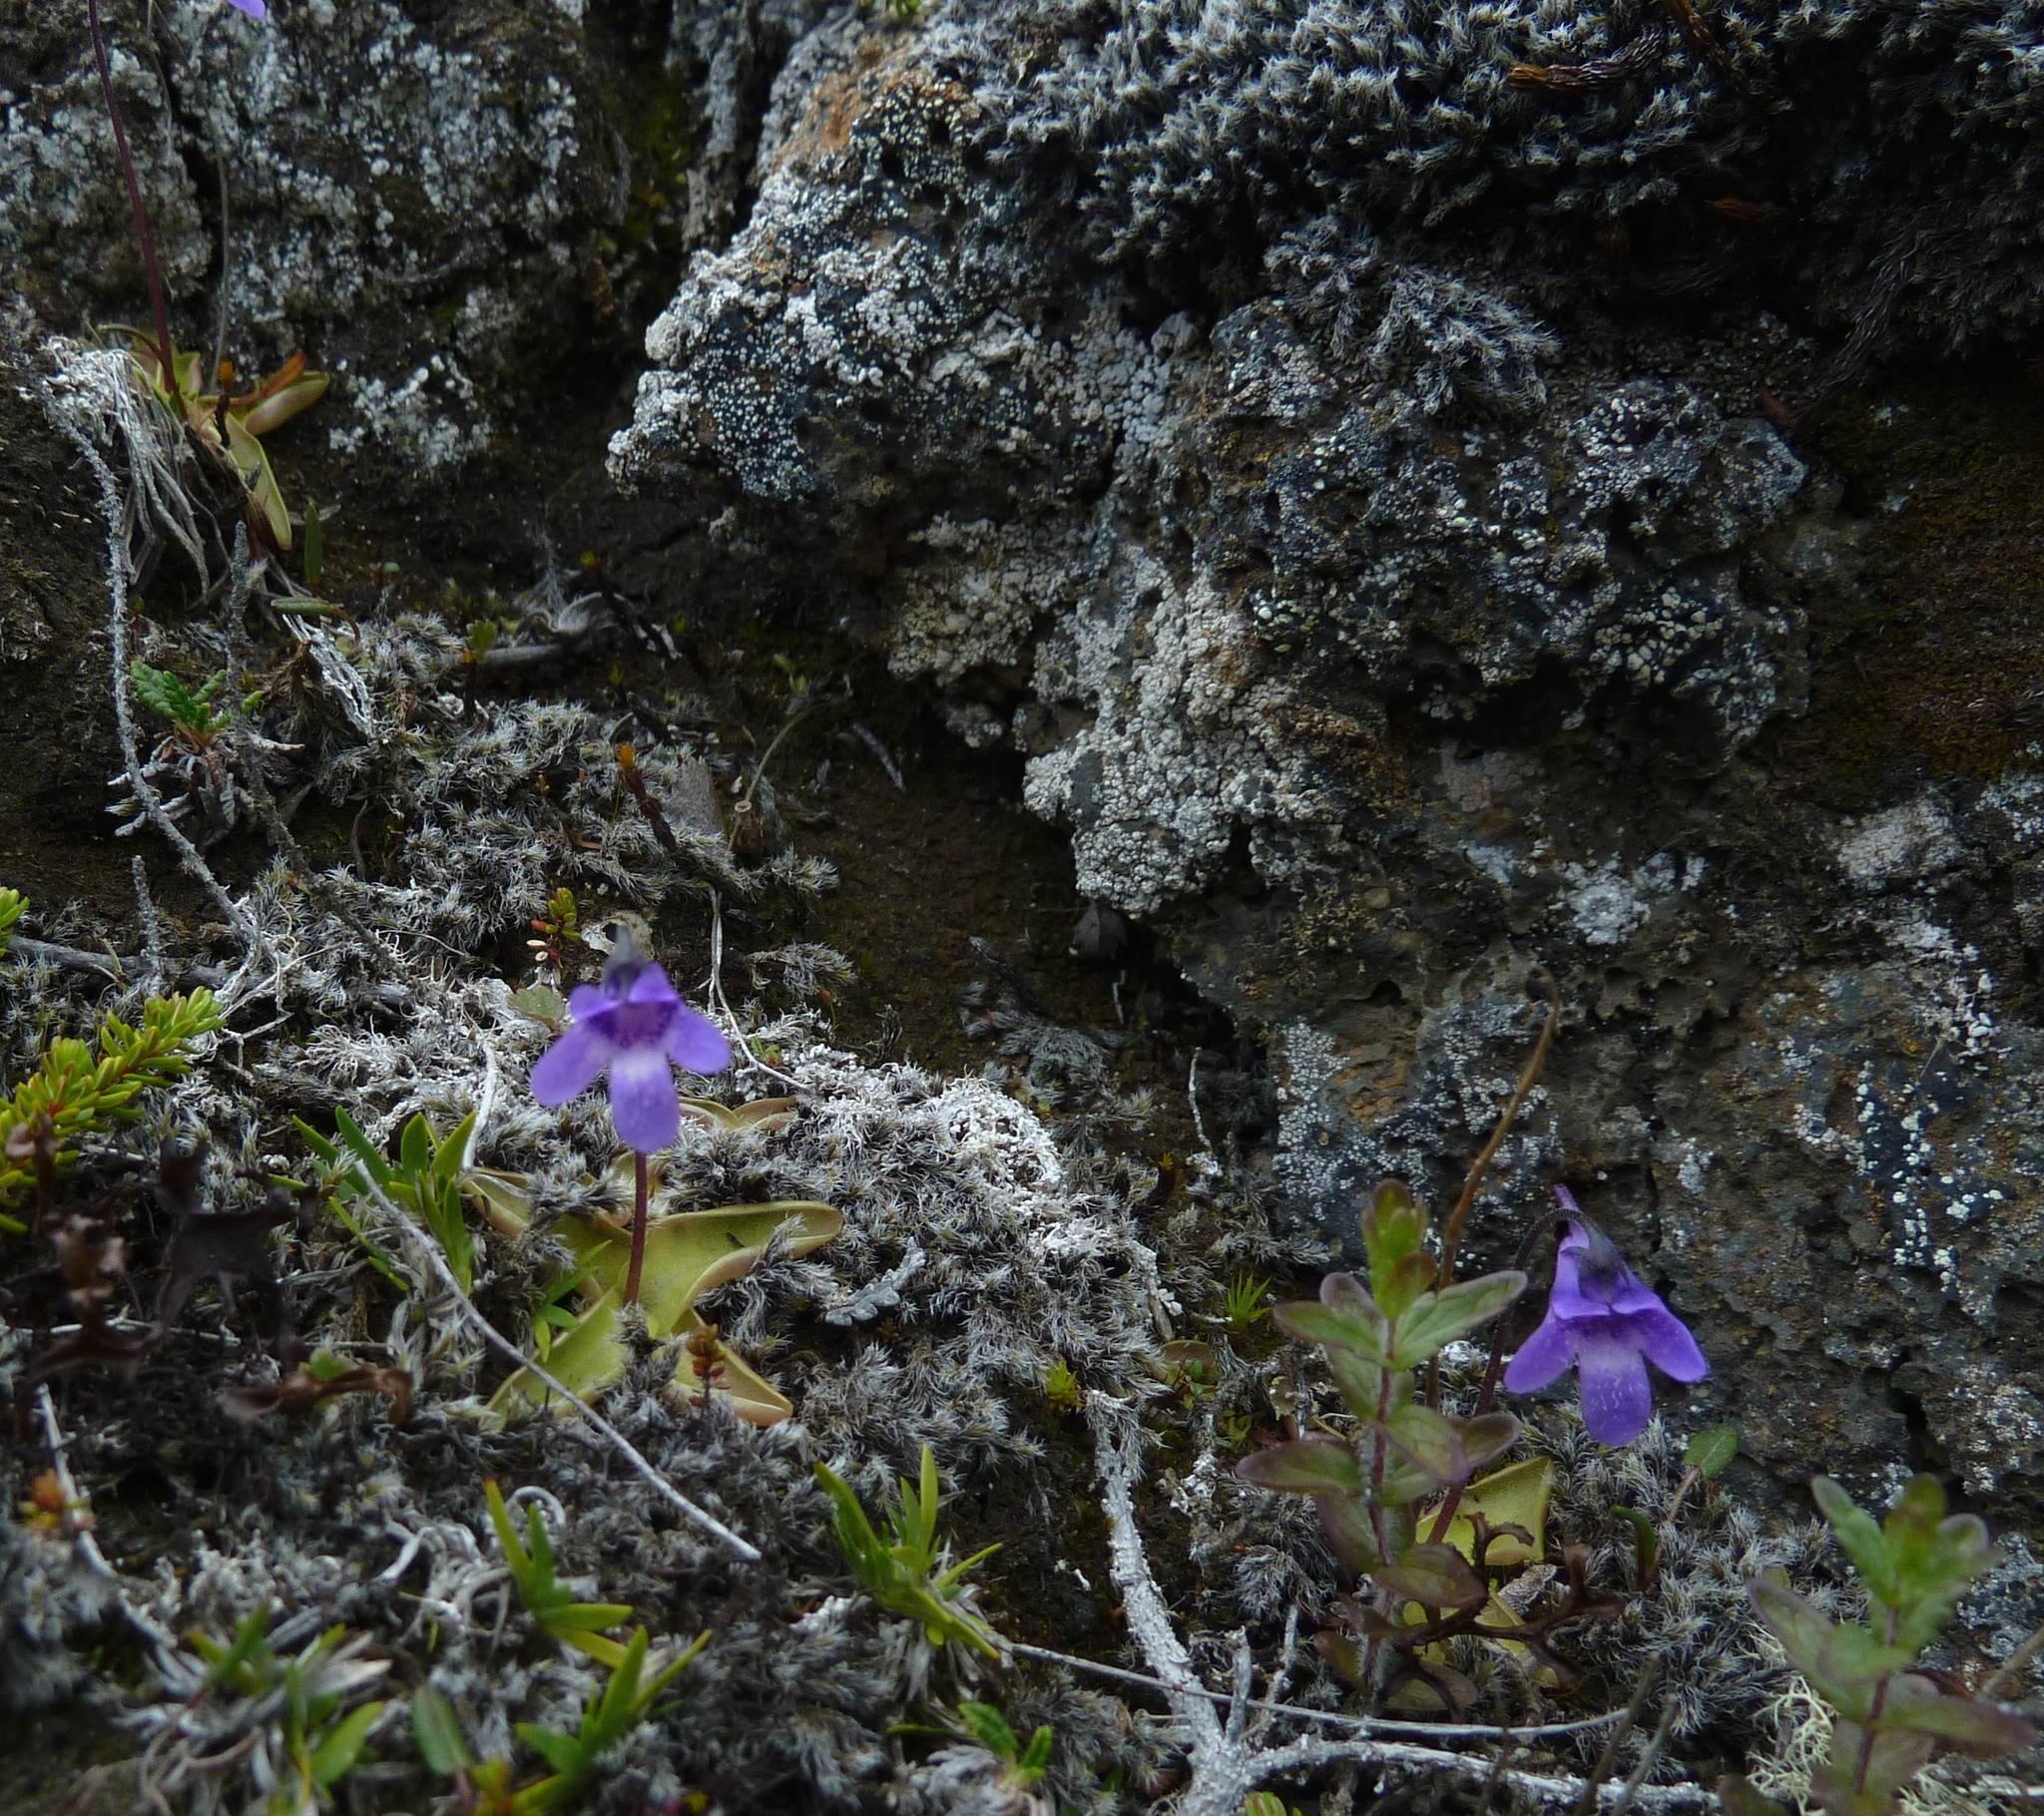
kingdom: Plantae
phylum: Tracheophyta
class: Magnoliopsida
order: Lamiales
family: Lentibulariaceae
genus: Pinguicula
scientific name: Pinguicula vulgaris
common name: Common butterwort
